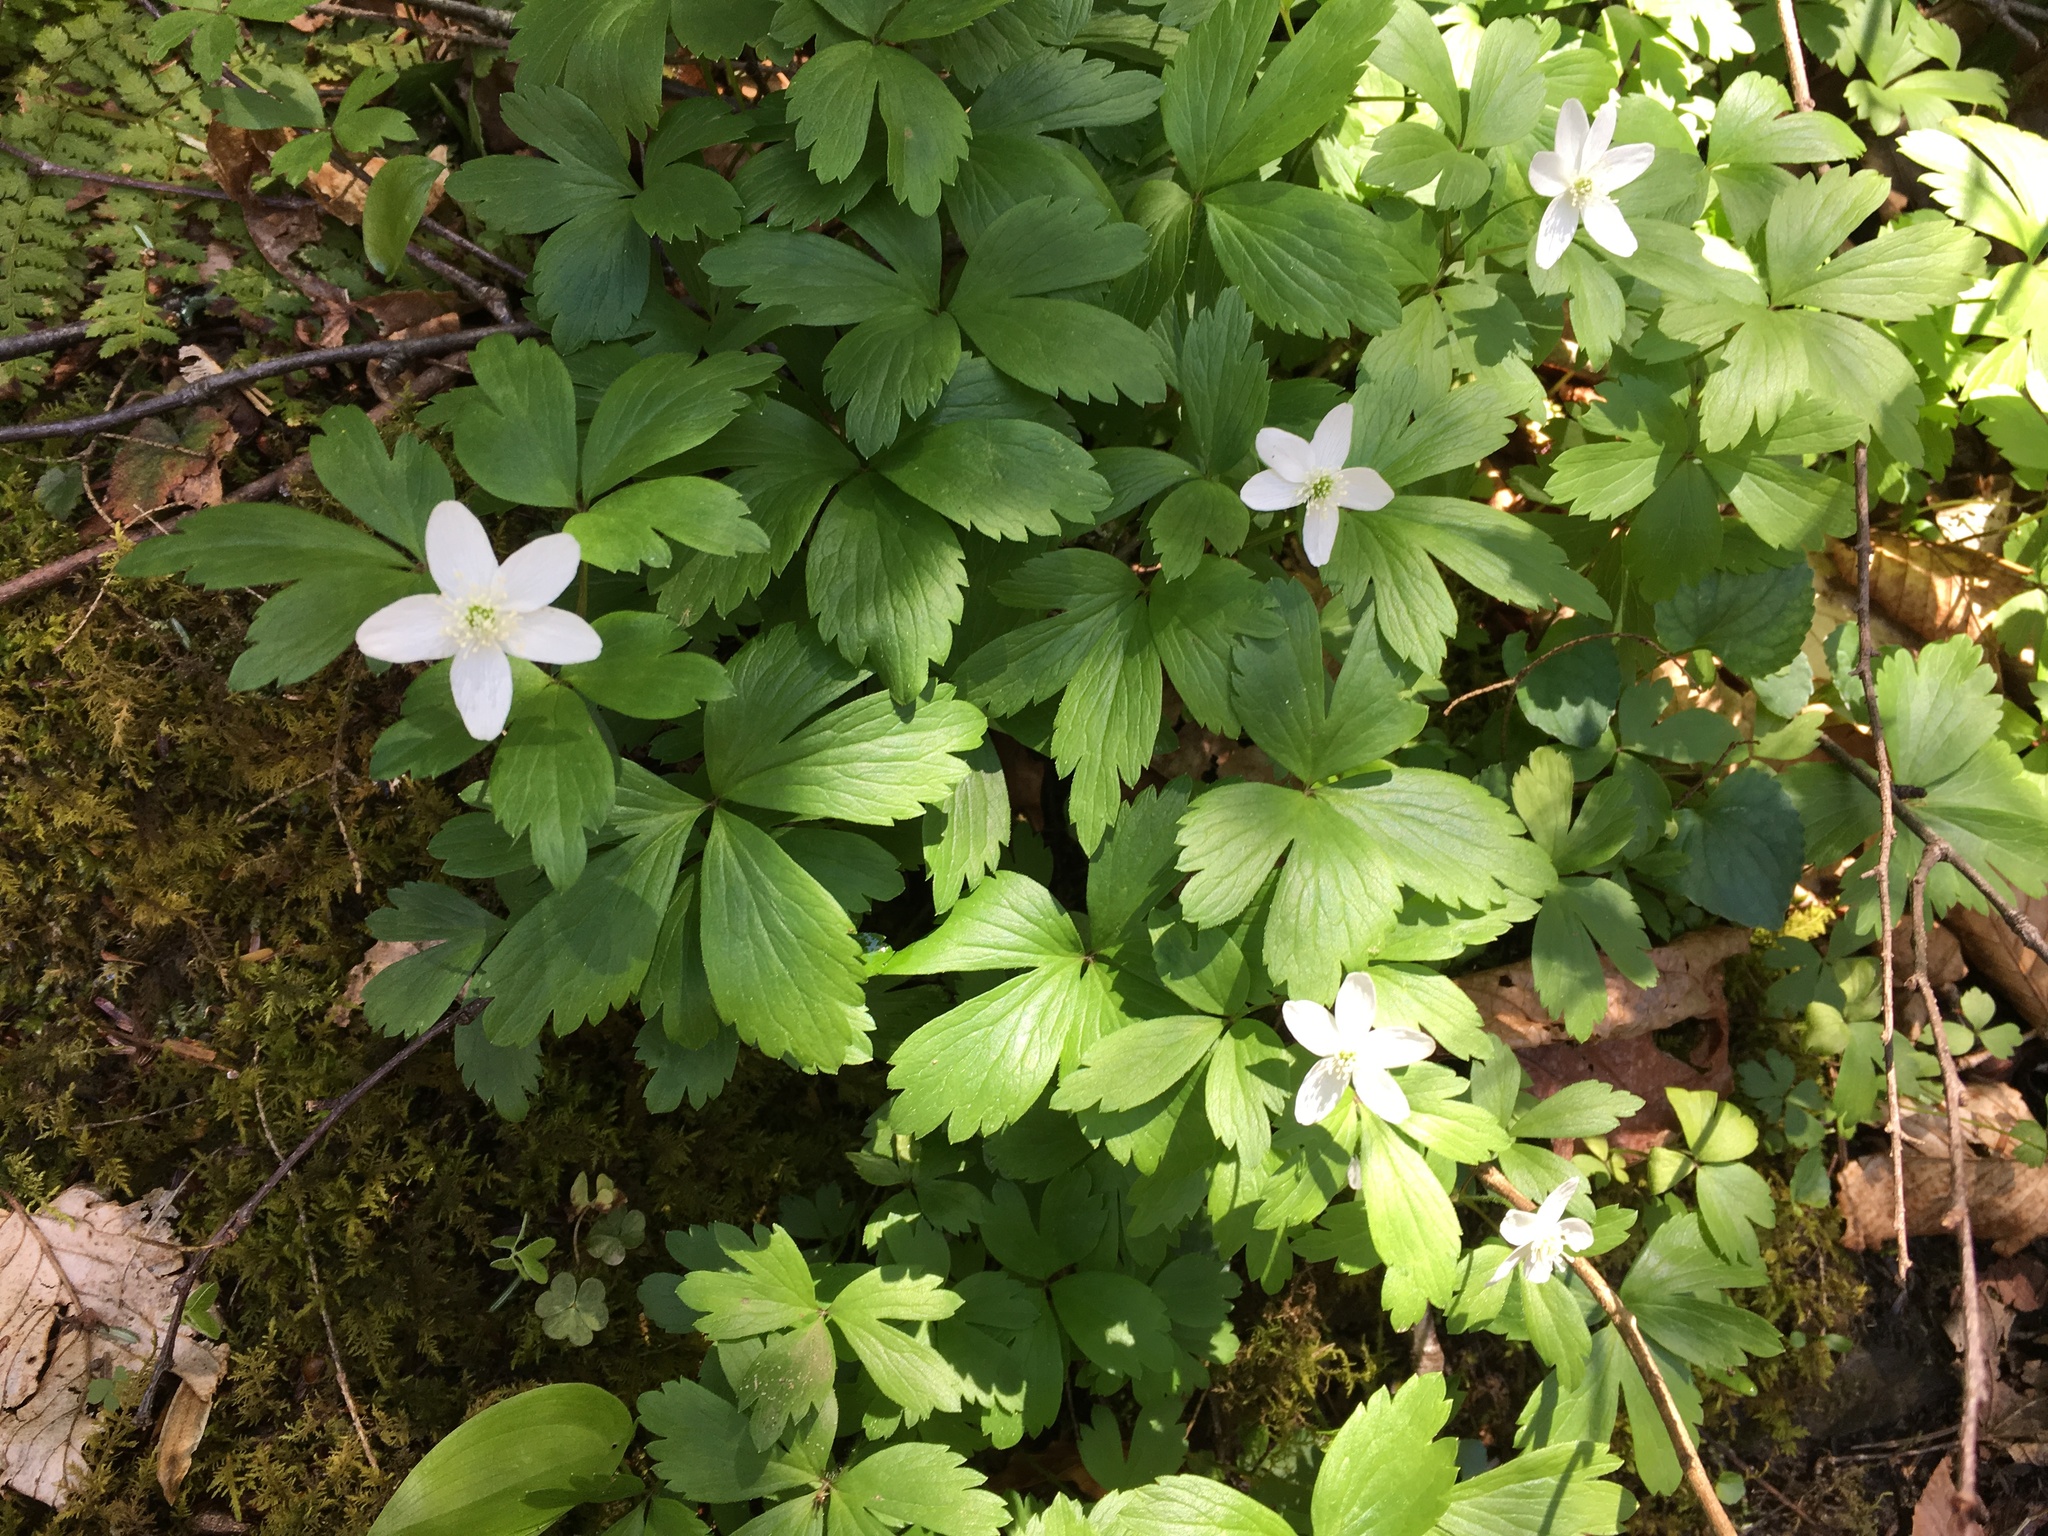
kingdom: Plantae
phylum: Tracheophyta
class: Magnoliopsida
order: Ranunculales
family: Ranunculaceae
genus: Anemone
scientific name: Anemone quinquefolia
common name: Wood anemone
